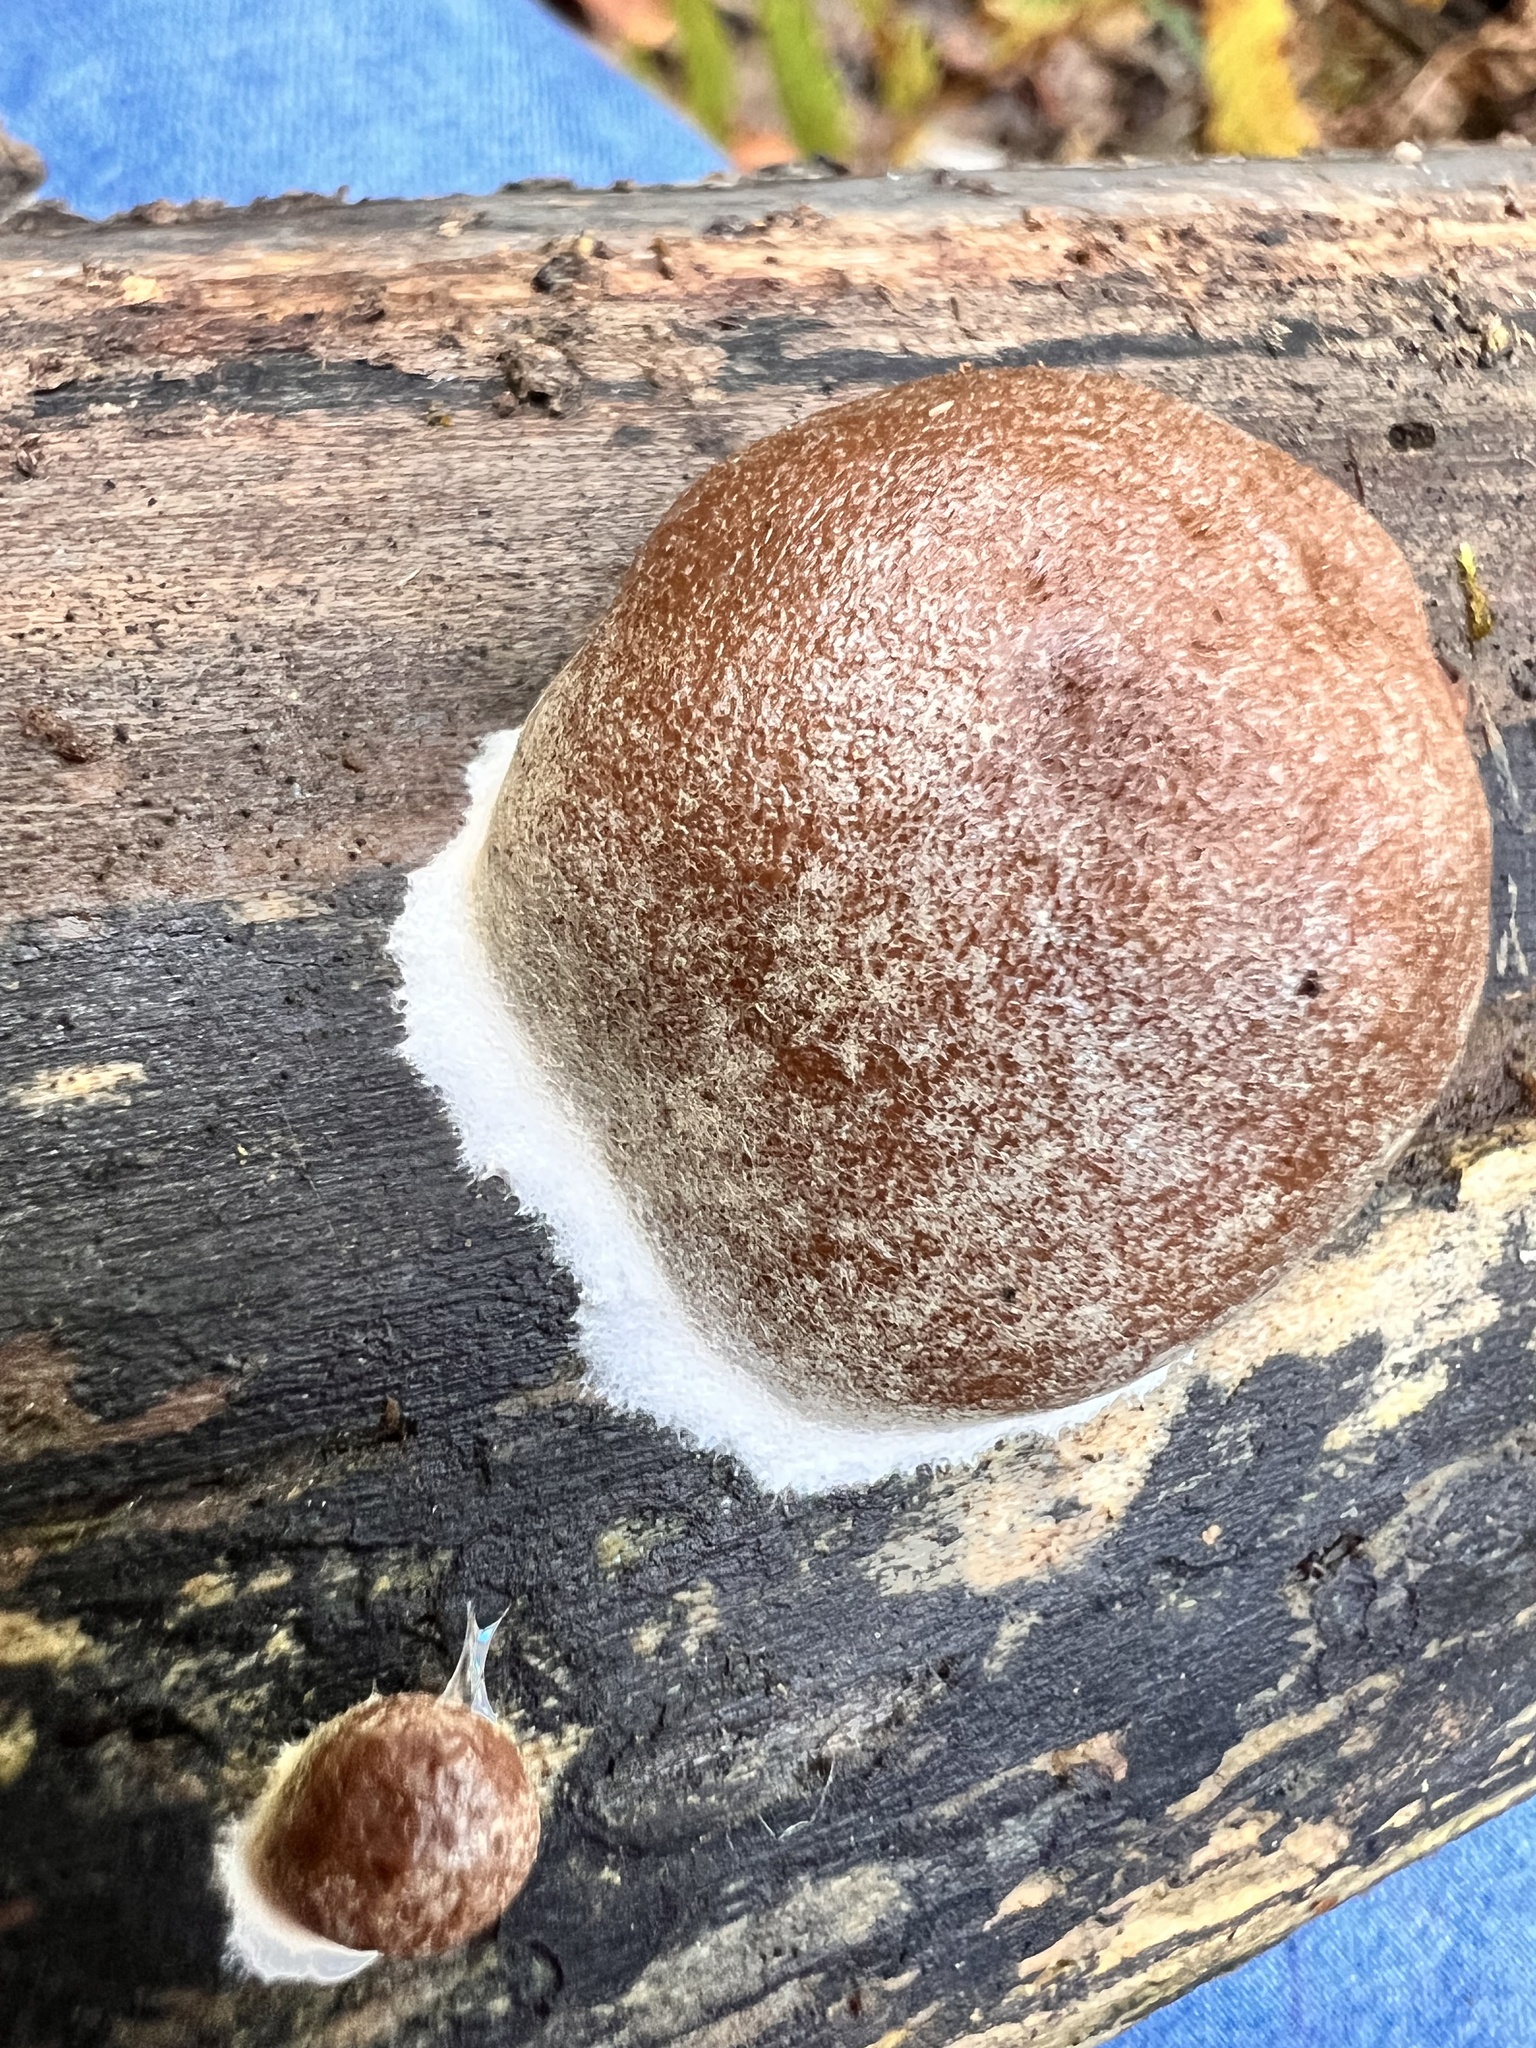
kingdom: Protozoa
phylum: Mycetozoa
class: Myxomycetes
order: Cribrariales
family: Tubiferaceae
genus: Reticularia
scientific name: Reticularia splendens
